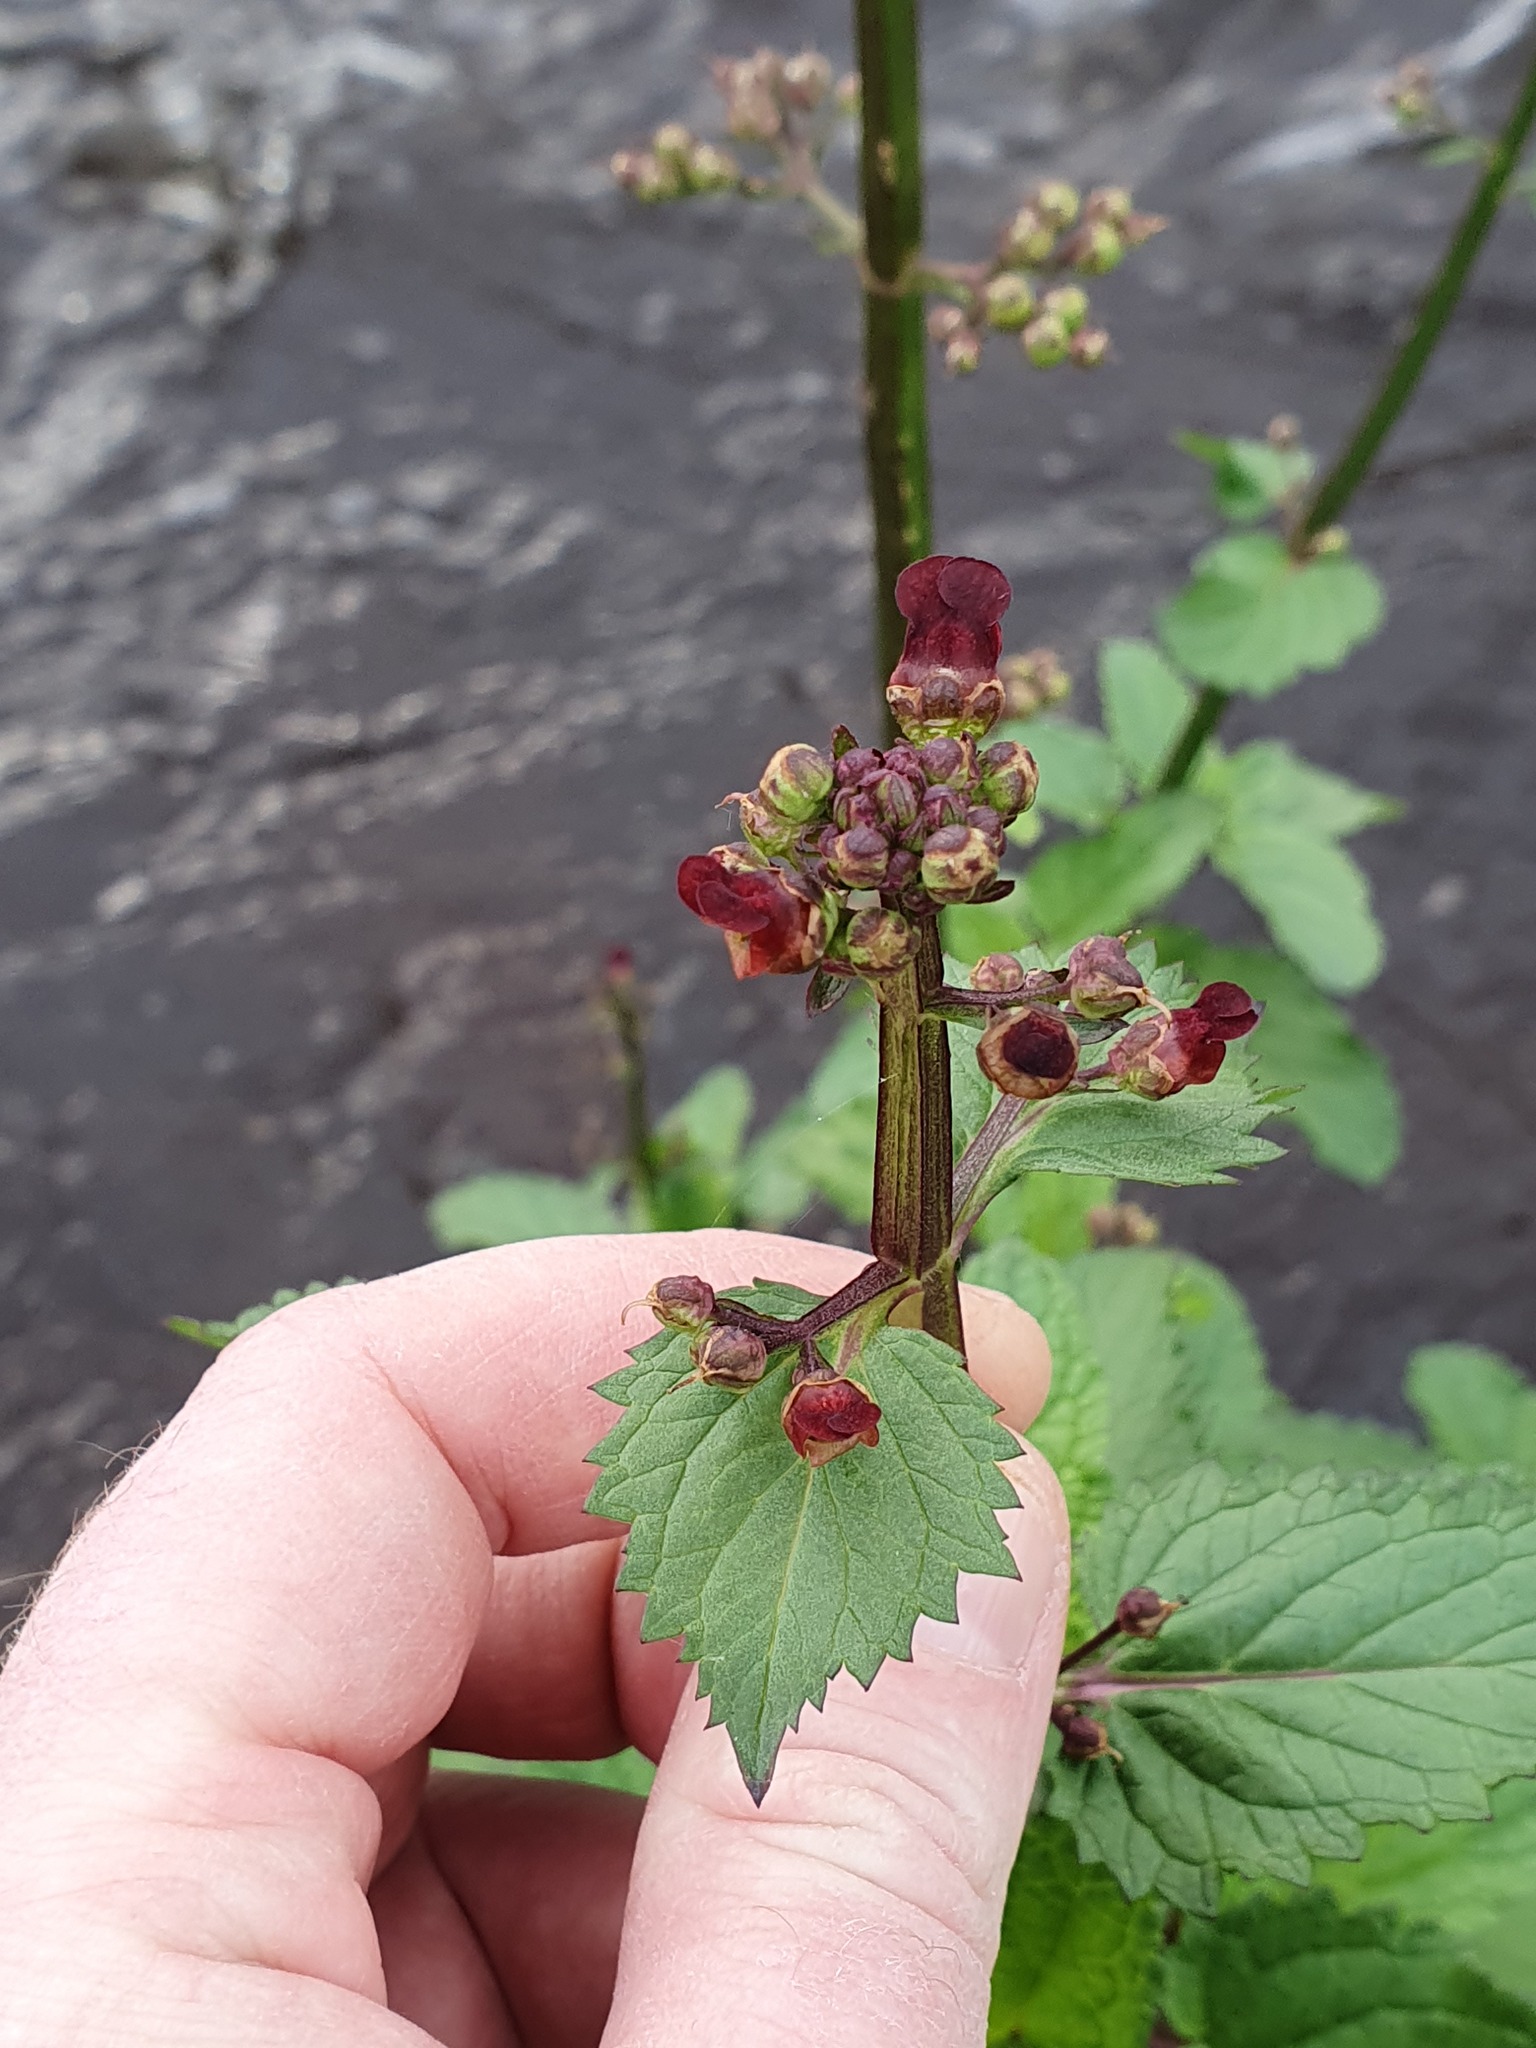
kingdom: Plantae
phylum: Tracheophyta
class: Magnoliopsida
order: Lamiales
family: Scrophulariaceae
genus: Scrophularia
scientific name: Scrophularia auriculata
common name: Water betony
